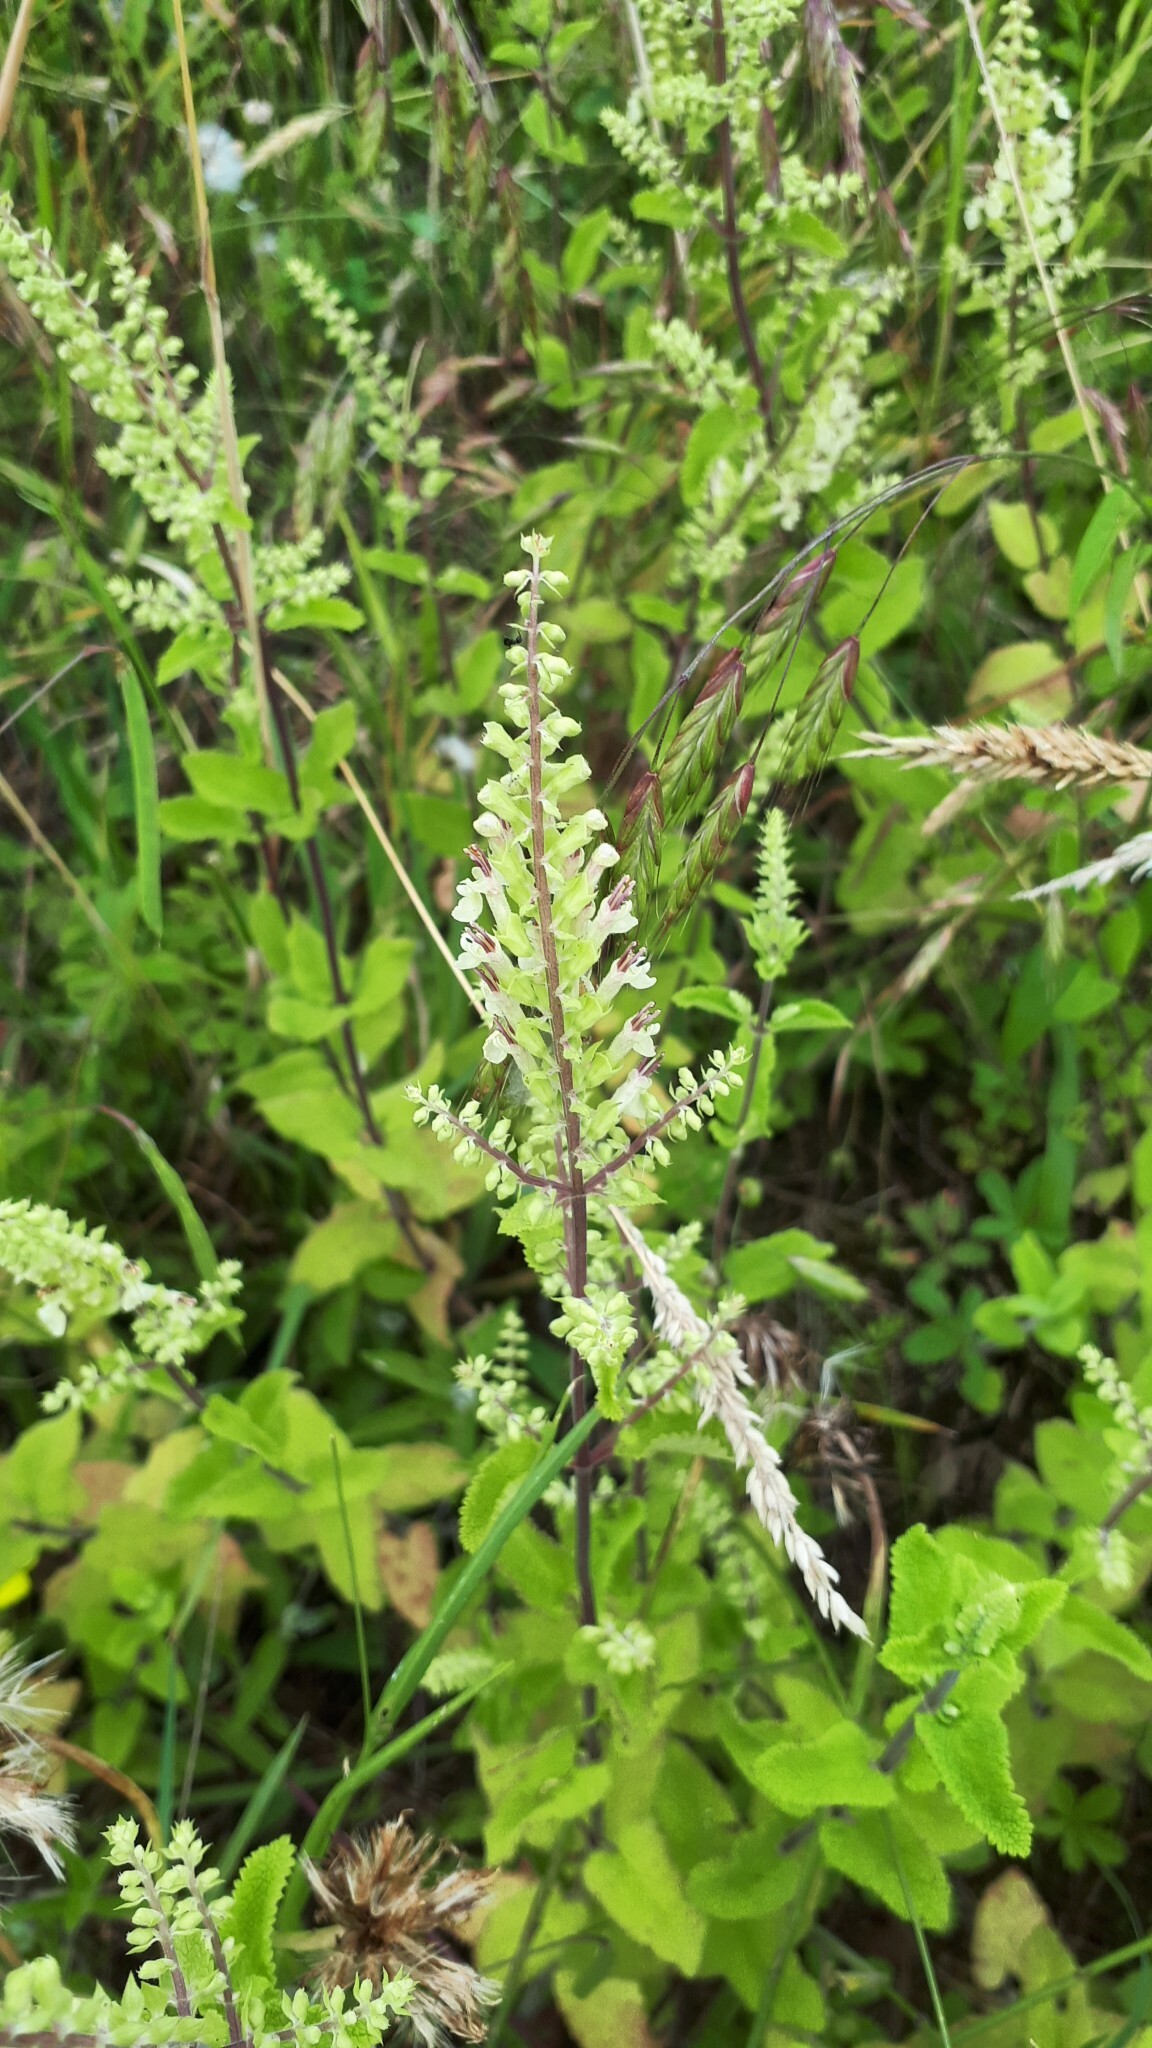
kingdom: Plantae
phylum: Tracheophyta
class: Magnoliopsida
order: Lamiales
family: Lamiaceae
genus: Teucrium
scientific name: Teucrium scorodonia
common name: Woodland germander
